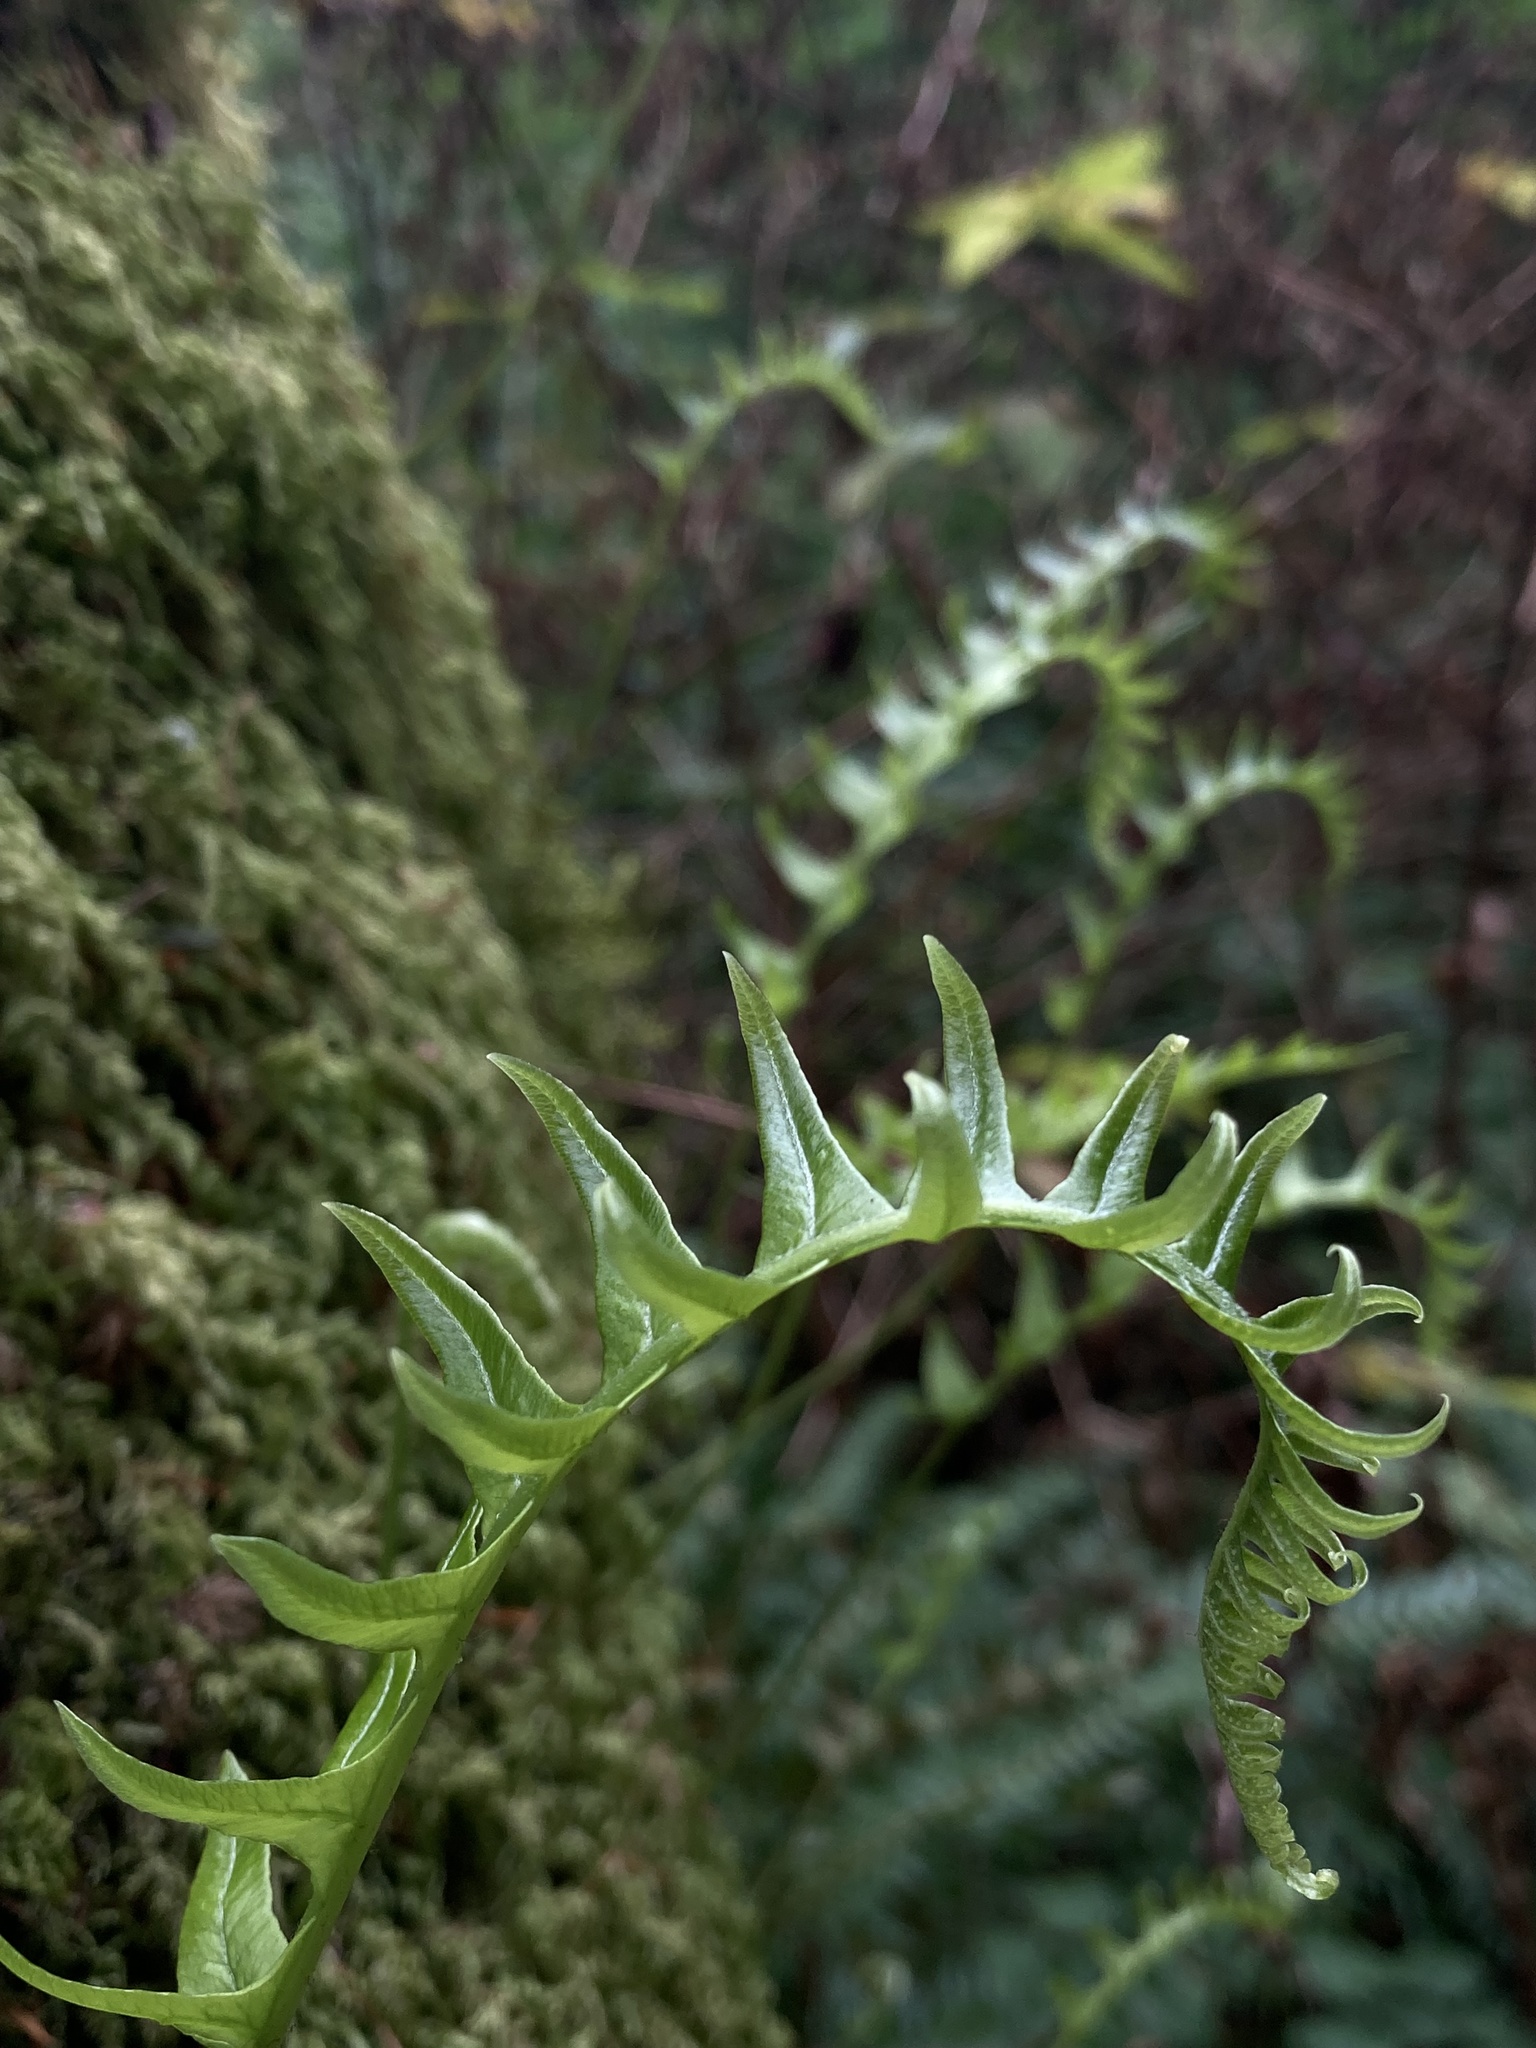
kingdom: Plantae
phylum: Tracheophyta
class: Polypodiopsida
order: Polypodiales
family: Polypodiaceae
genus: Polypodium
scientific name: Polypodium glycyrrhiza
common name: Licorice fern
